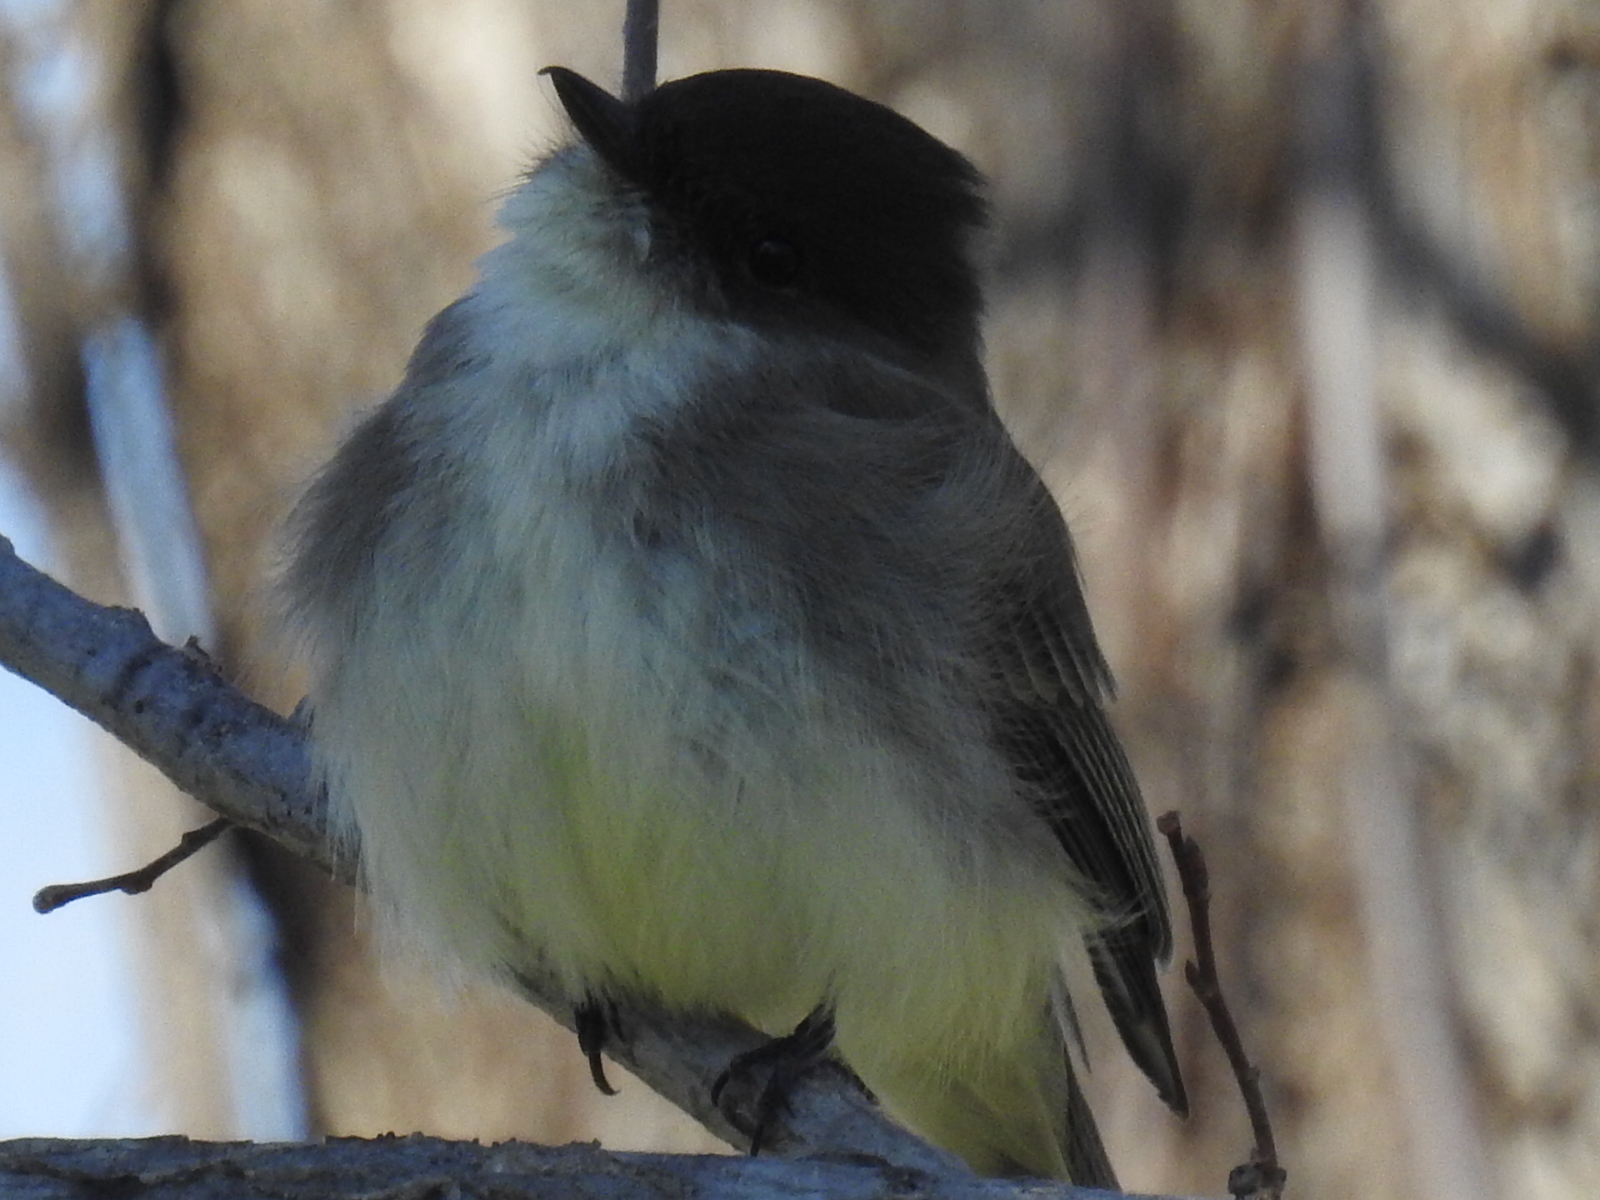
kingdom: Animalia
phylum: Chordata
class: Aves
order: Passeriformes
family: Tyrannidae
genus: Sayornis
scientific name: Sayornis phoebe
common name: Eastern phoebe
